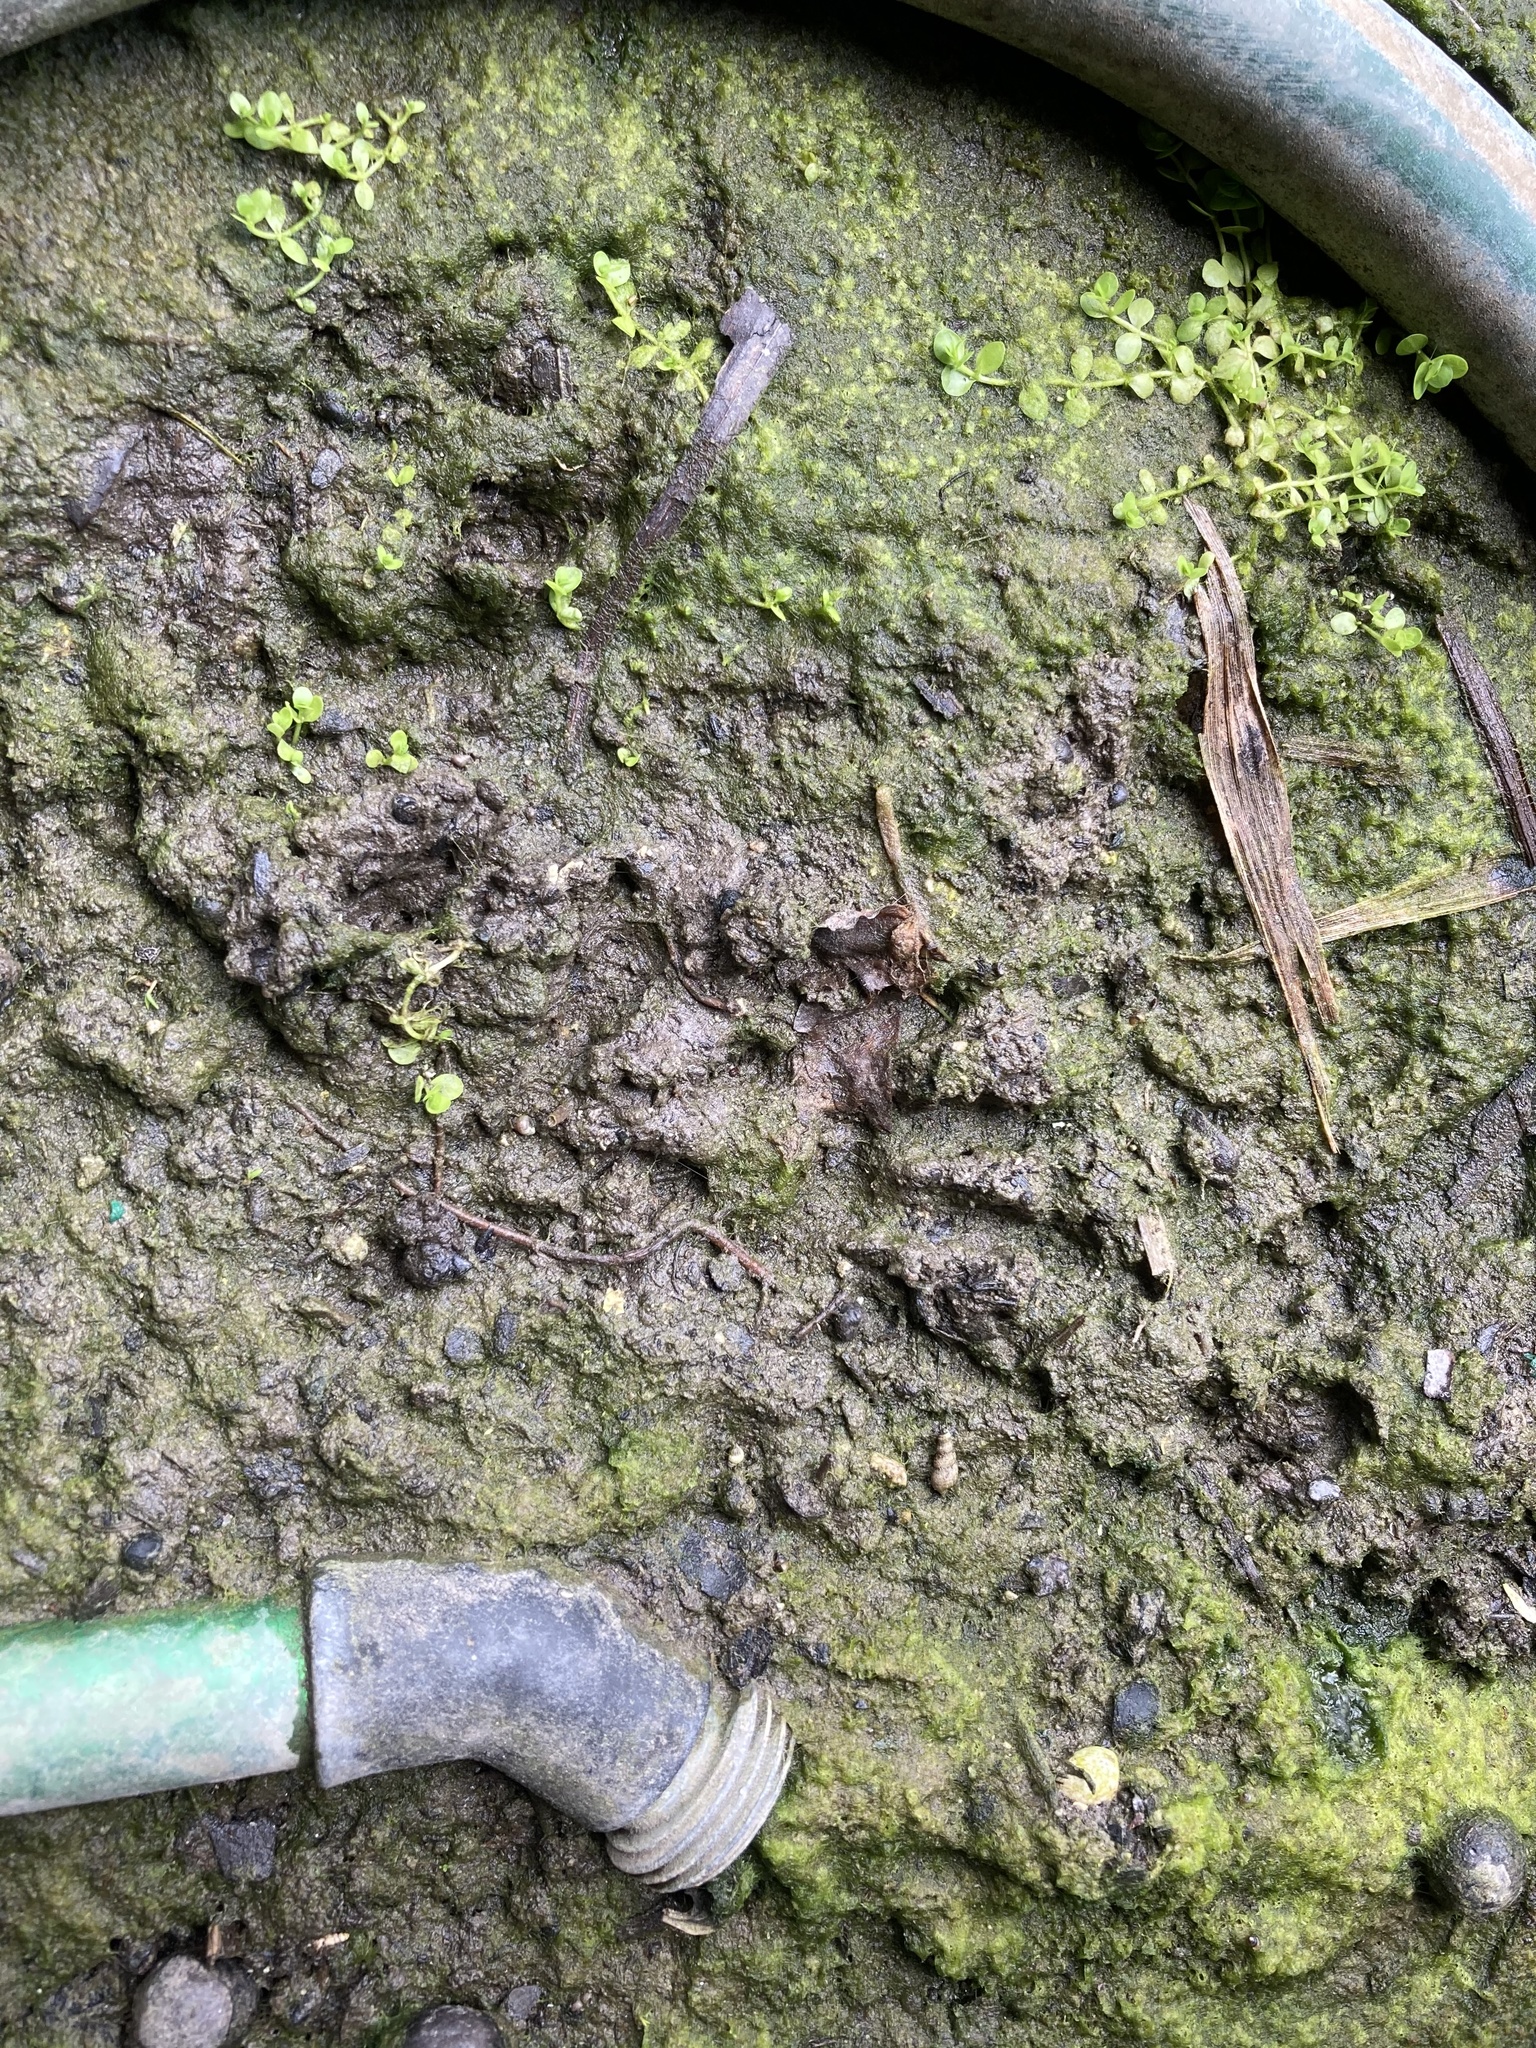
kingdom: Animalia
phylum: Chordata
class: Mammalia
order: Carnivora
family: Procyonidae
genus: Procyon
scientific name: Procyon lotor
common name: Raccoon
